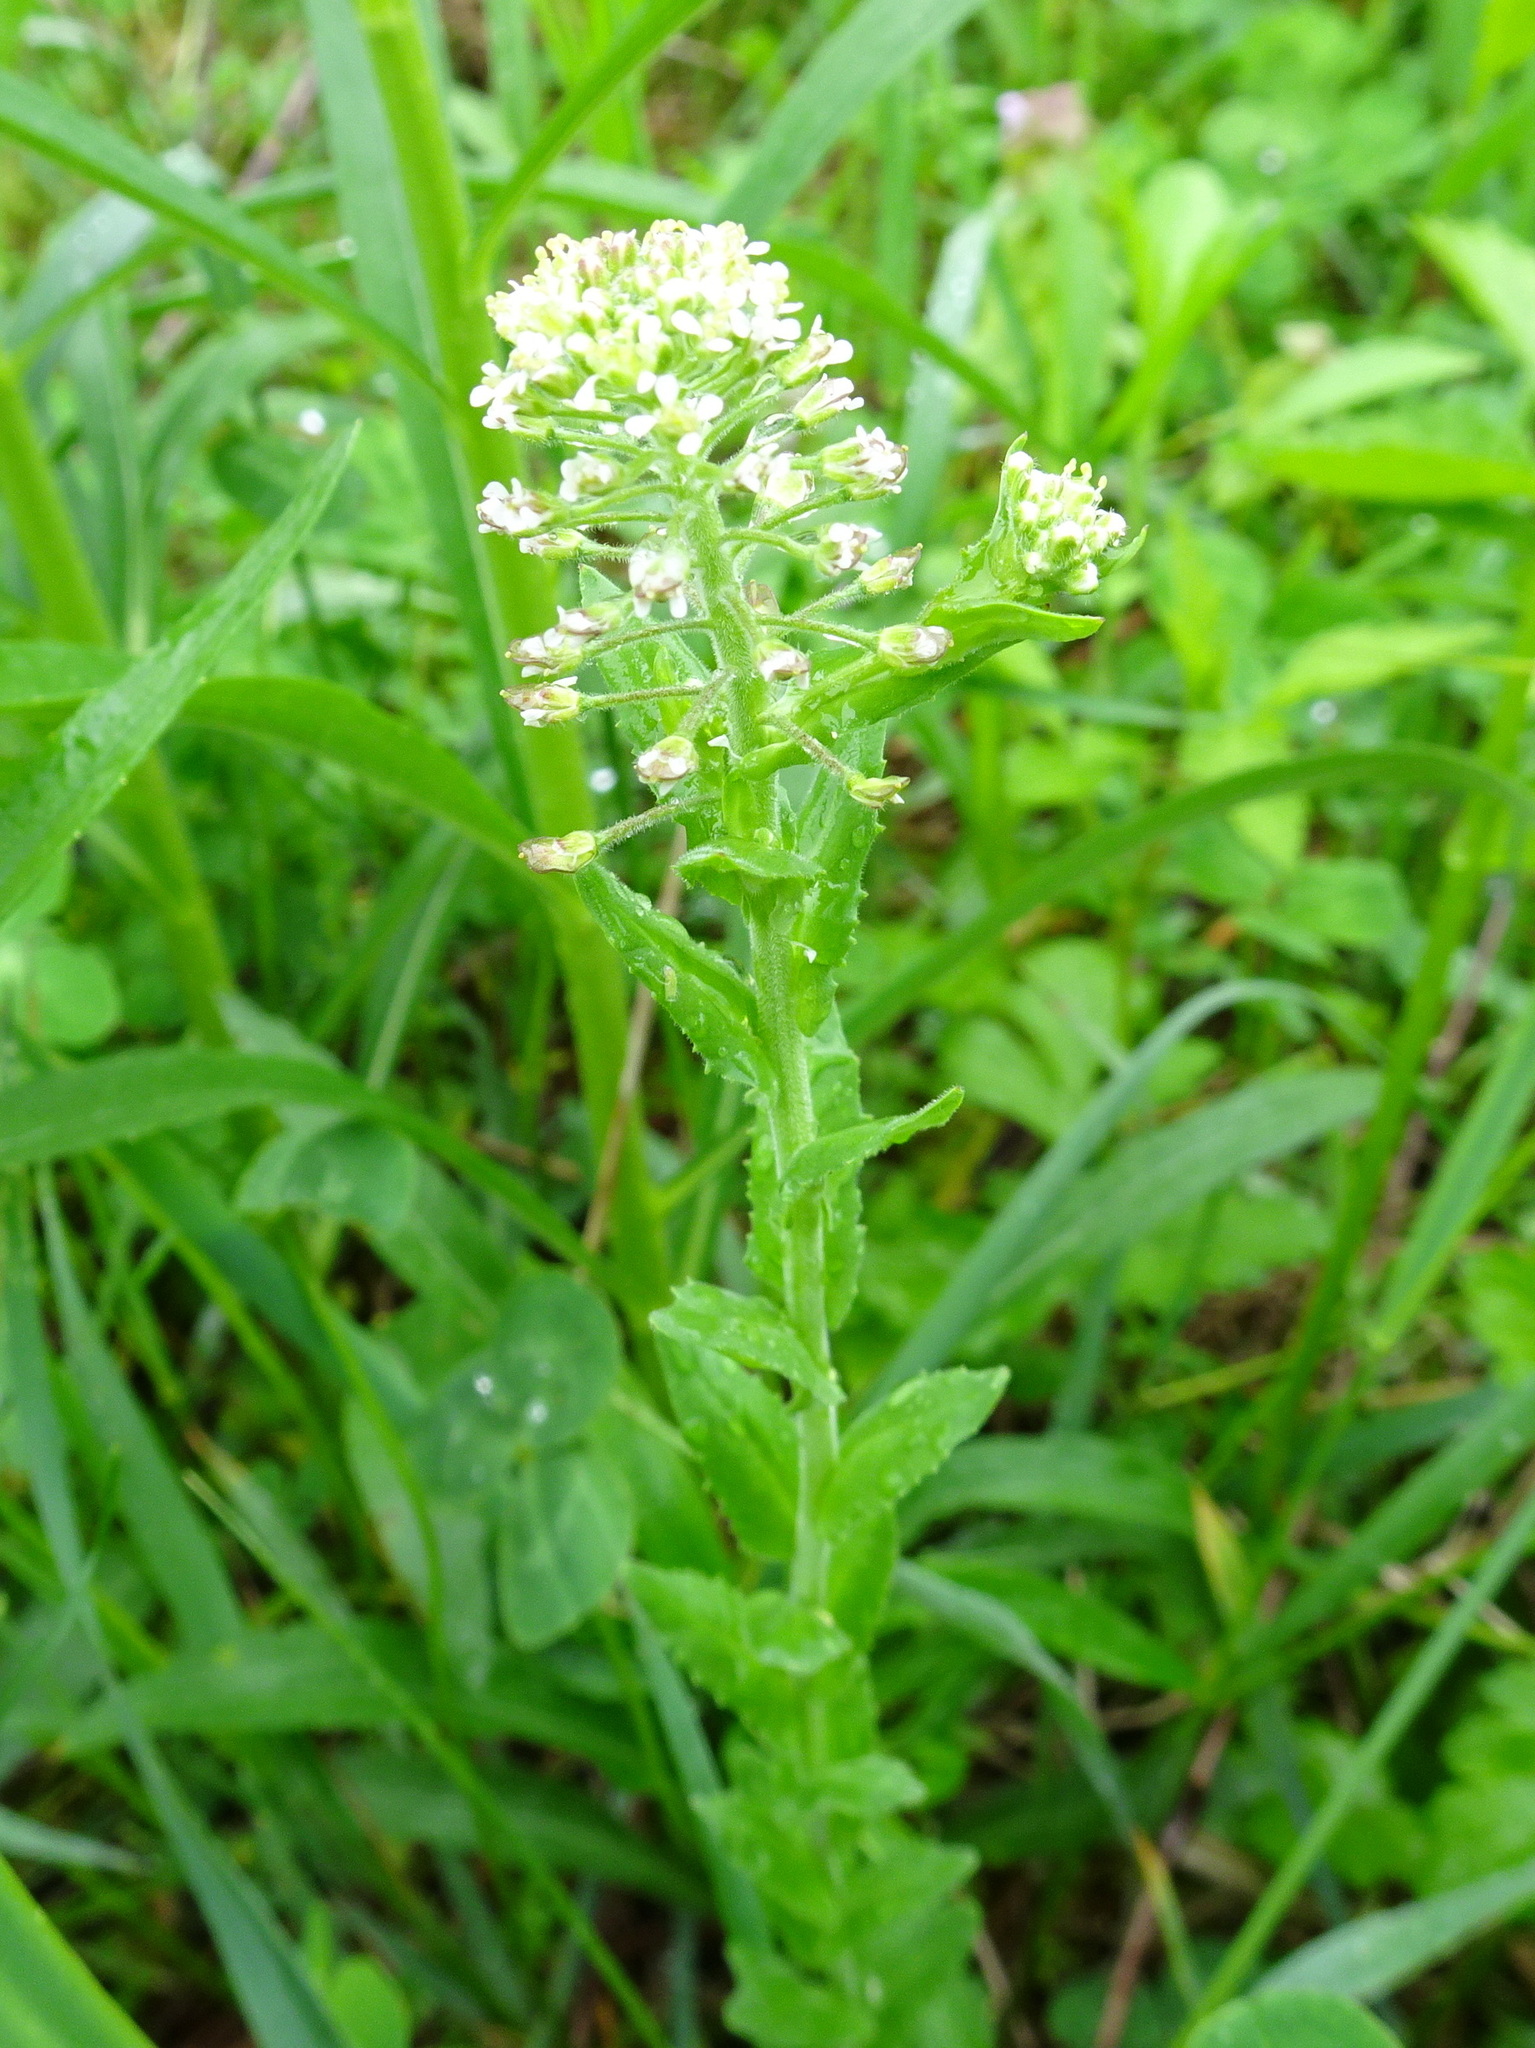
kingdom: Plantae
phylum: Tracheophyta
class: Magnoliopsida
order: Brassicales
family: Brassicaceae
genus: Lepidium
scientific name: Lepidium campestre
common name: Field pepperwort
